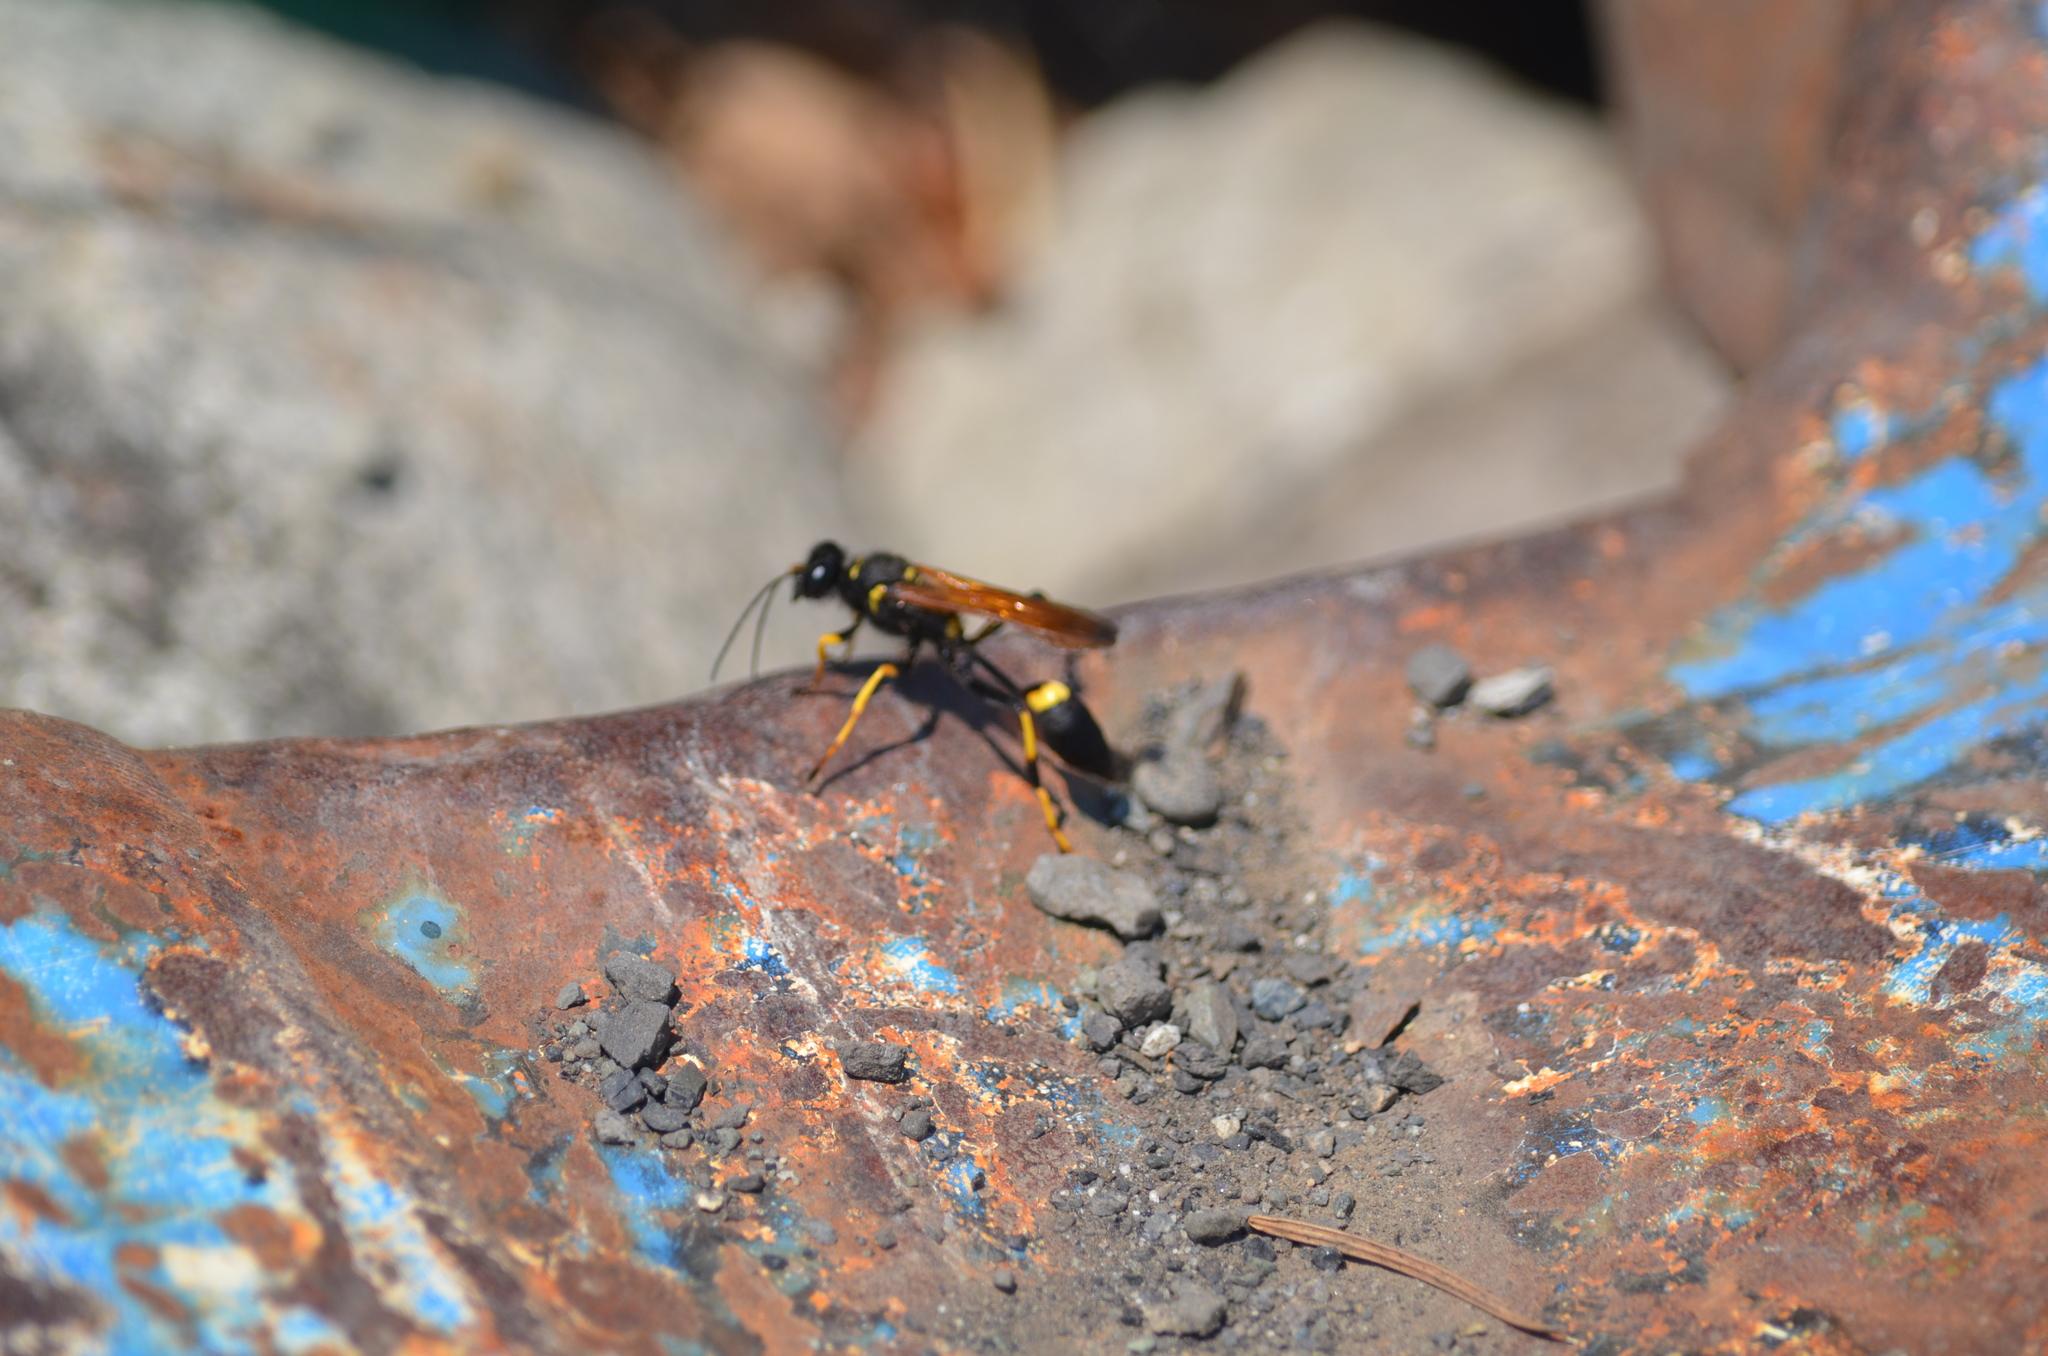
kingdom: Animalia
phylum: Arthropoda
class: Insecta
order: Hymenoptera
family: Sphecidae
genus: Sceliphron
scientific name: Sceliphron caementarium
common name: Mud dauber
